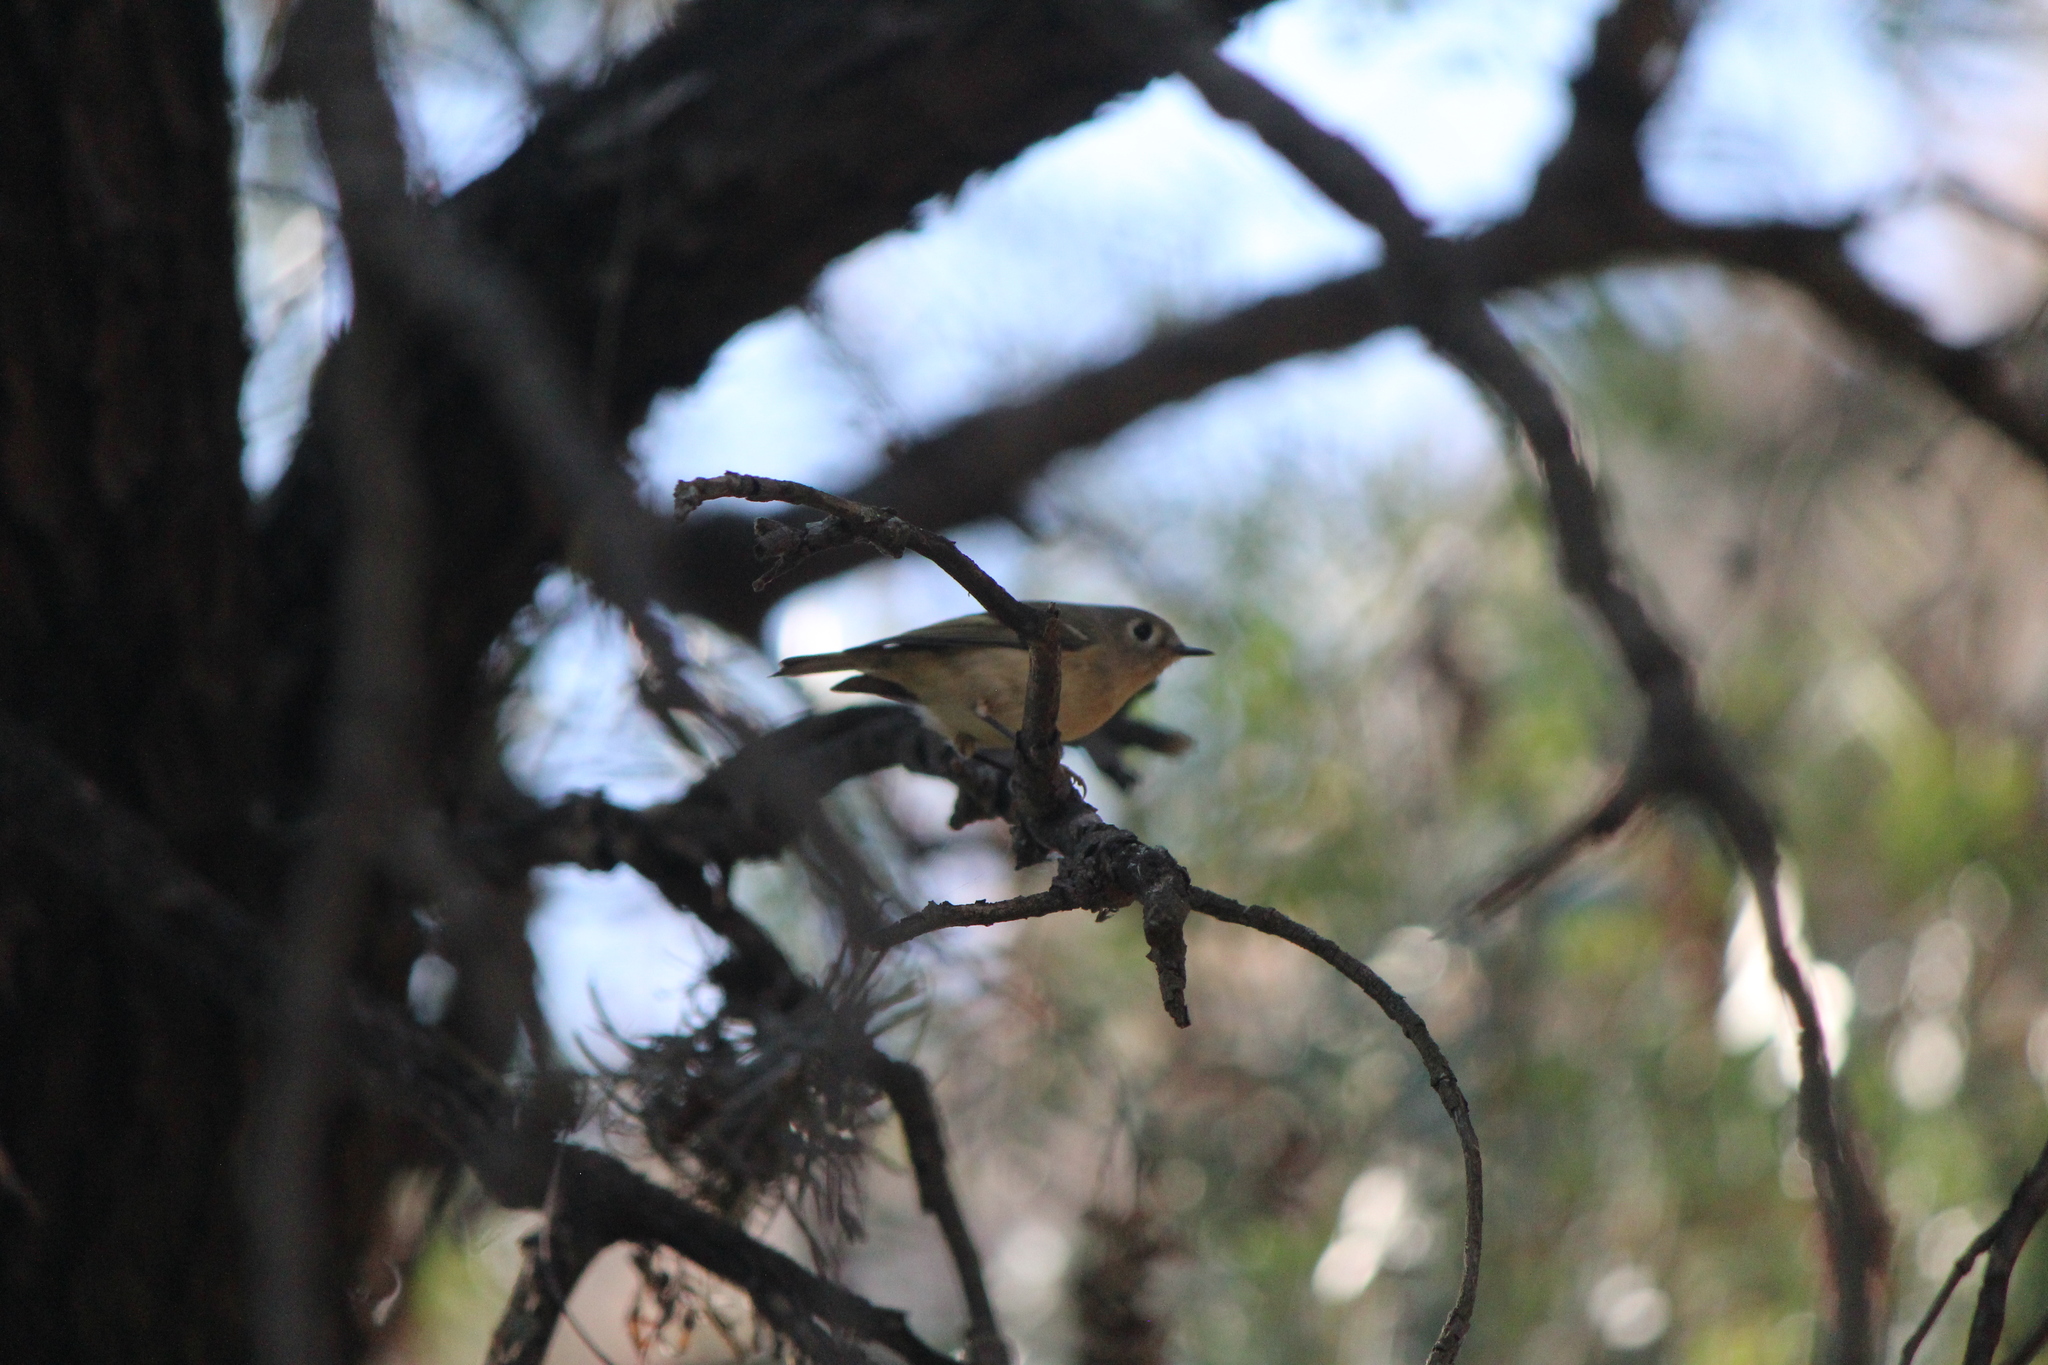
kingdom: Animalia
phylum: Chordata
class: Aves
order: Passeriformes
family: Regulidae
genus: Regulus
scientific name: Regulus calendula
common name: Ruby-crowned kinglet
